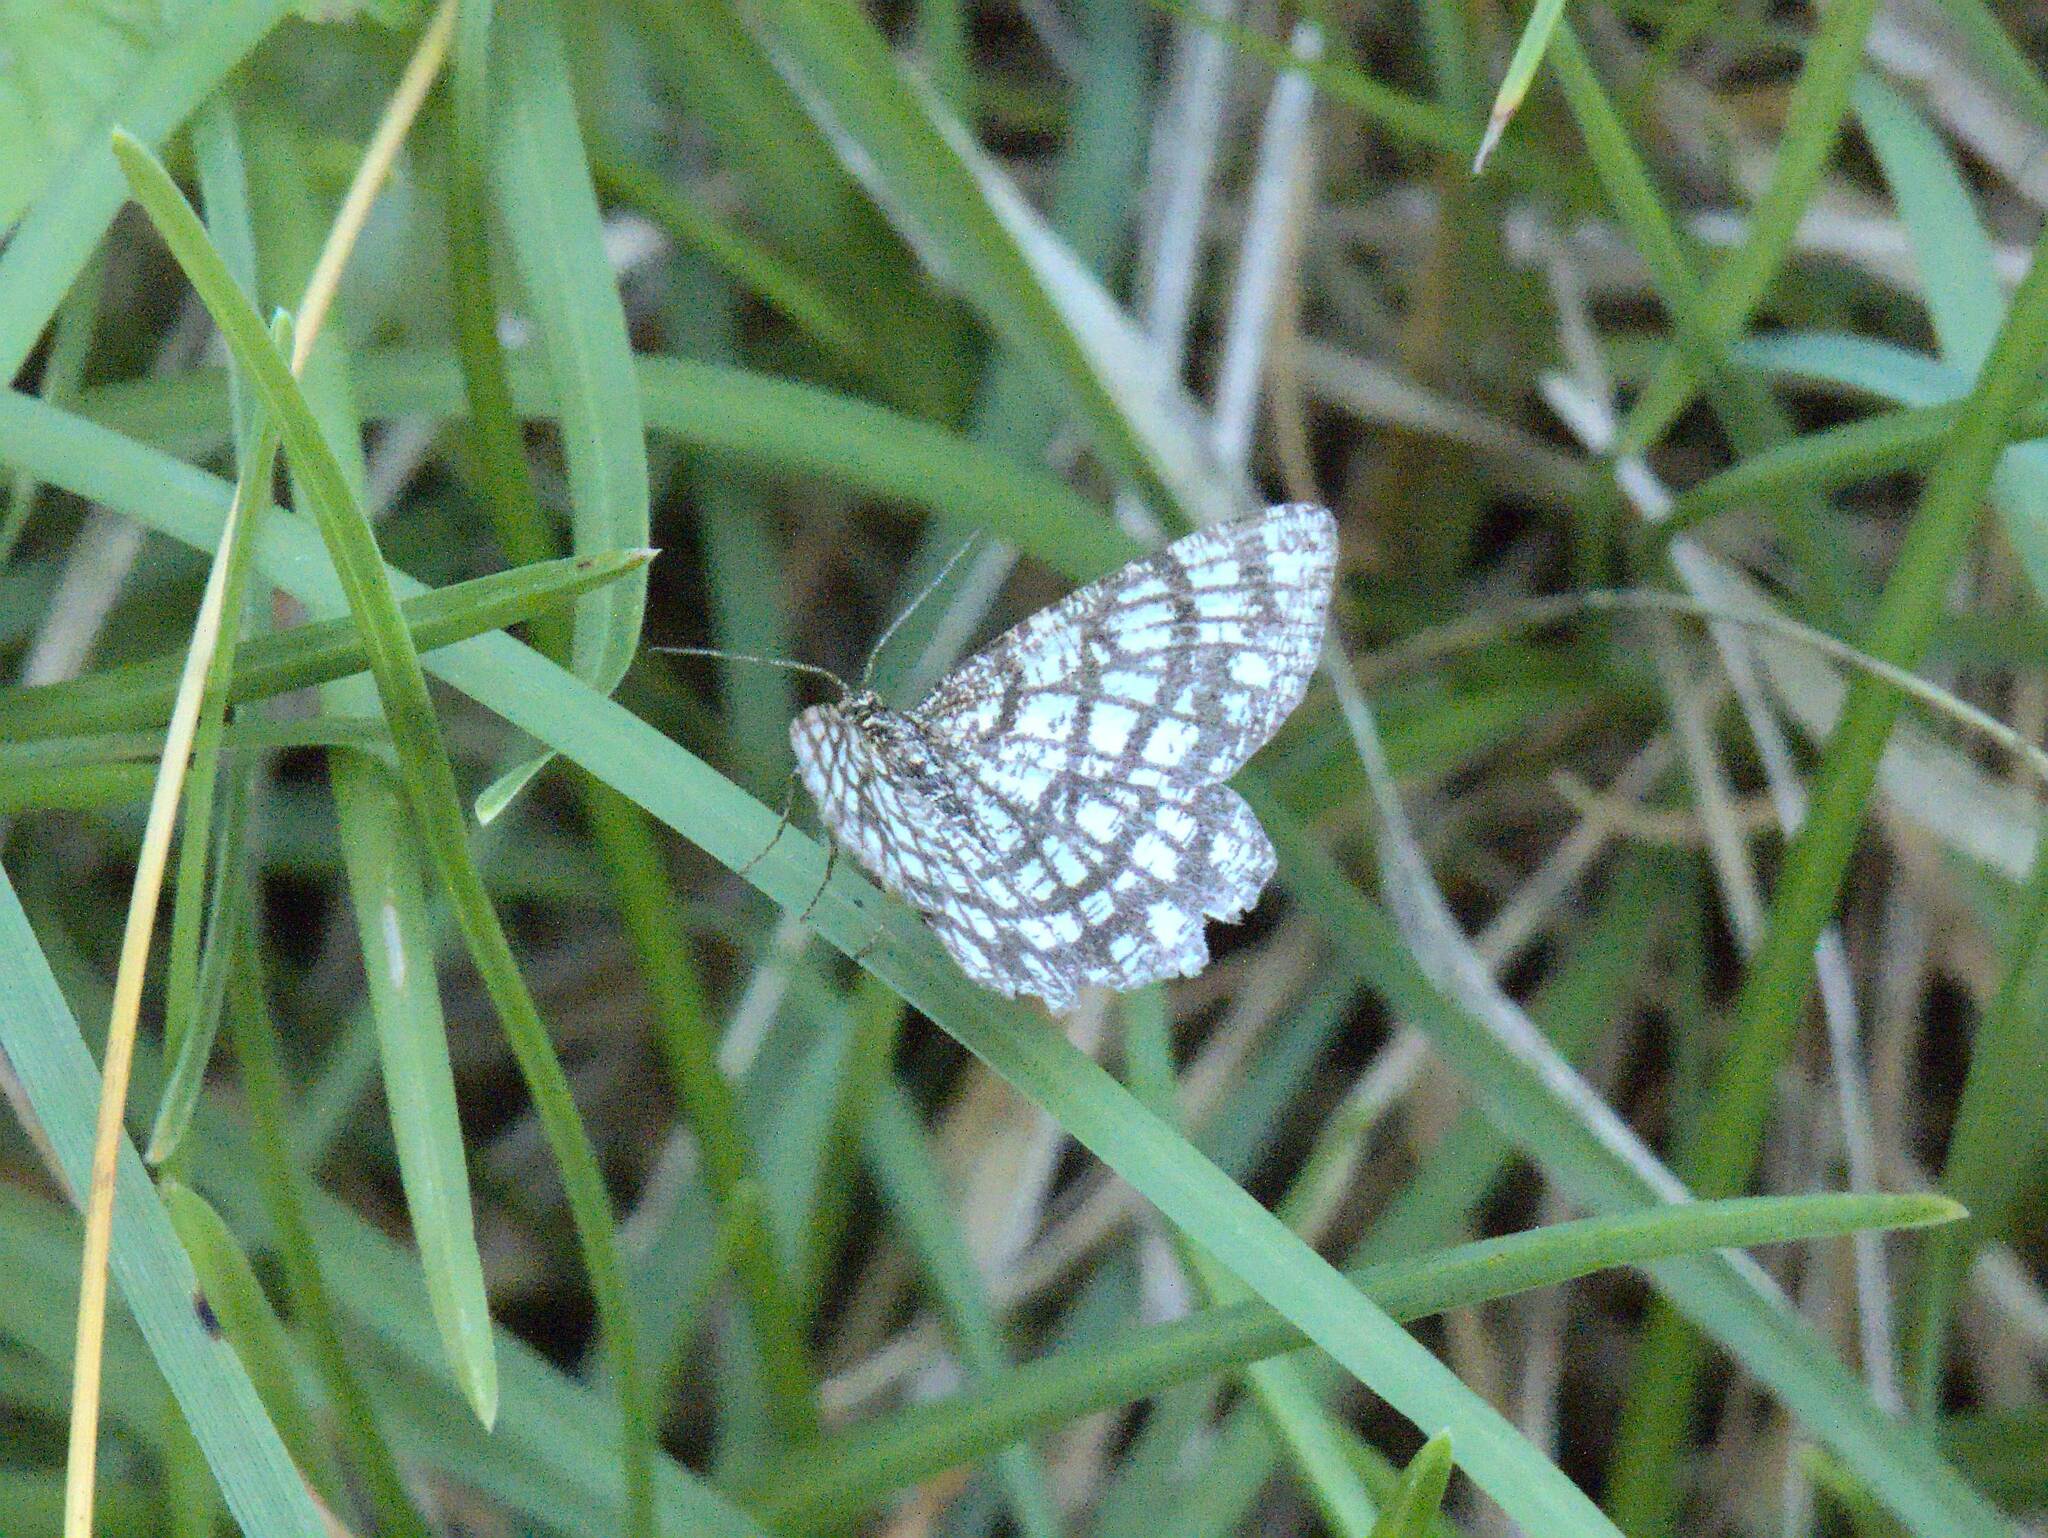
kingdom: Animalia
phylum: Arthropoda
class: Insecta
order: Lepidoptera
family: Geometridae
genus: Chiasmia
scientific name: Chiasmia clathrata
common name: Latticed heath
